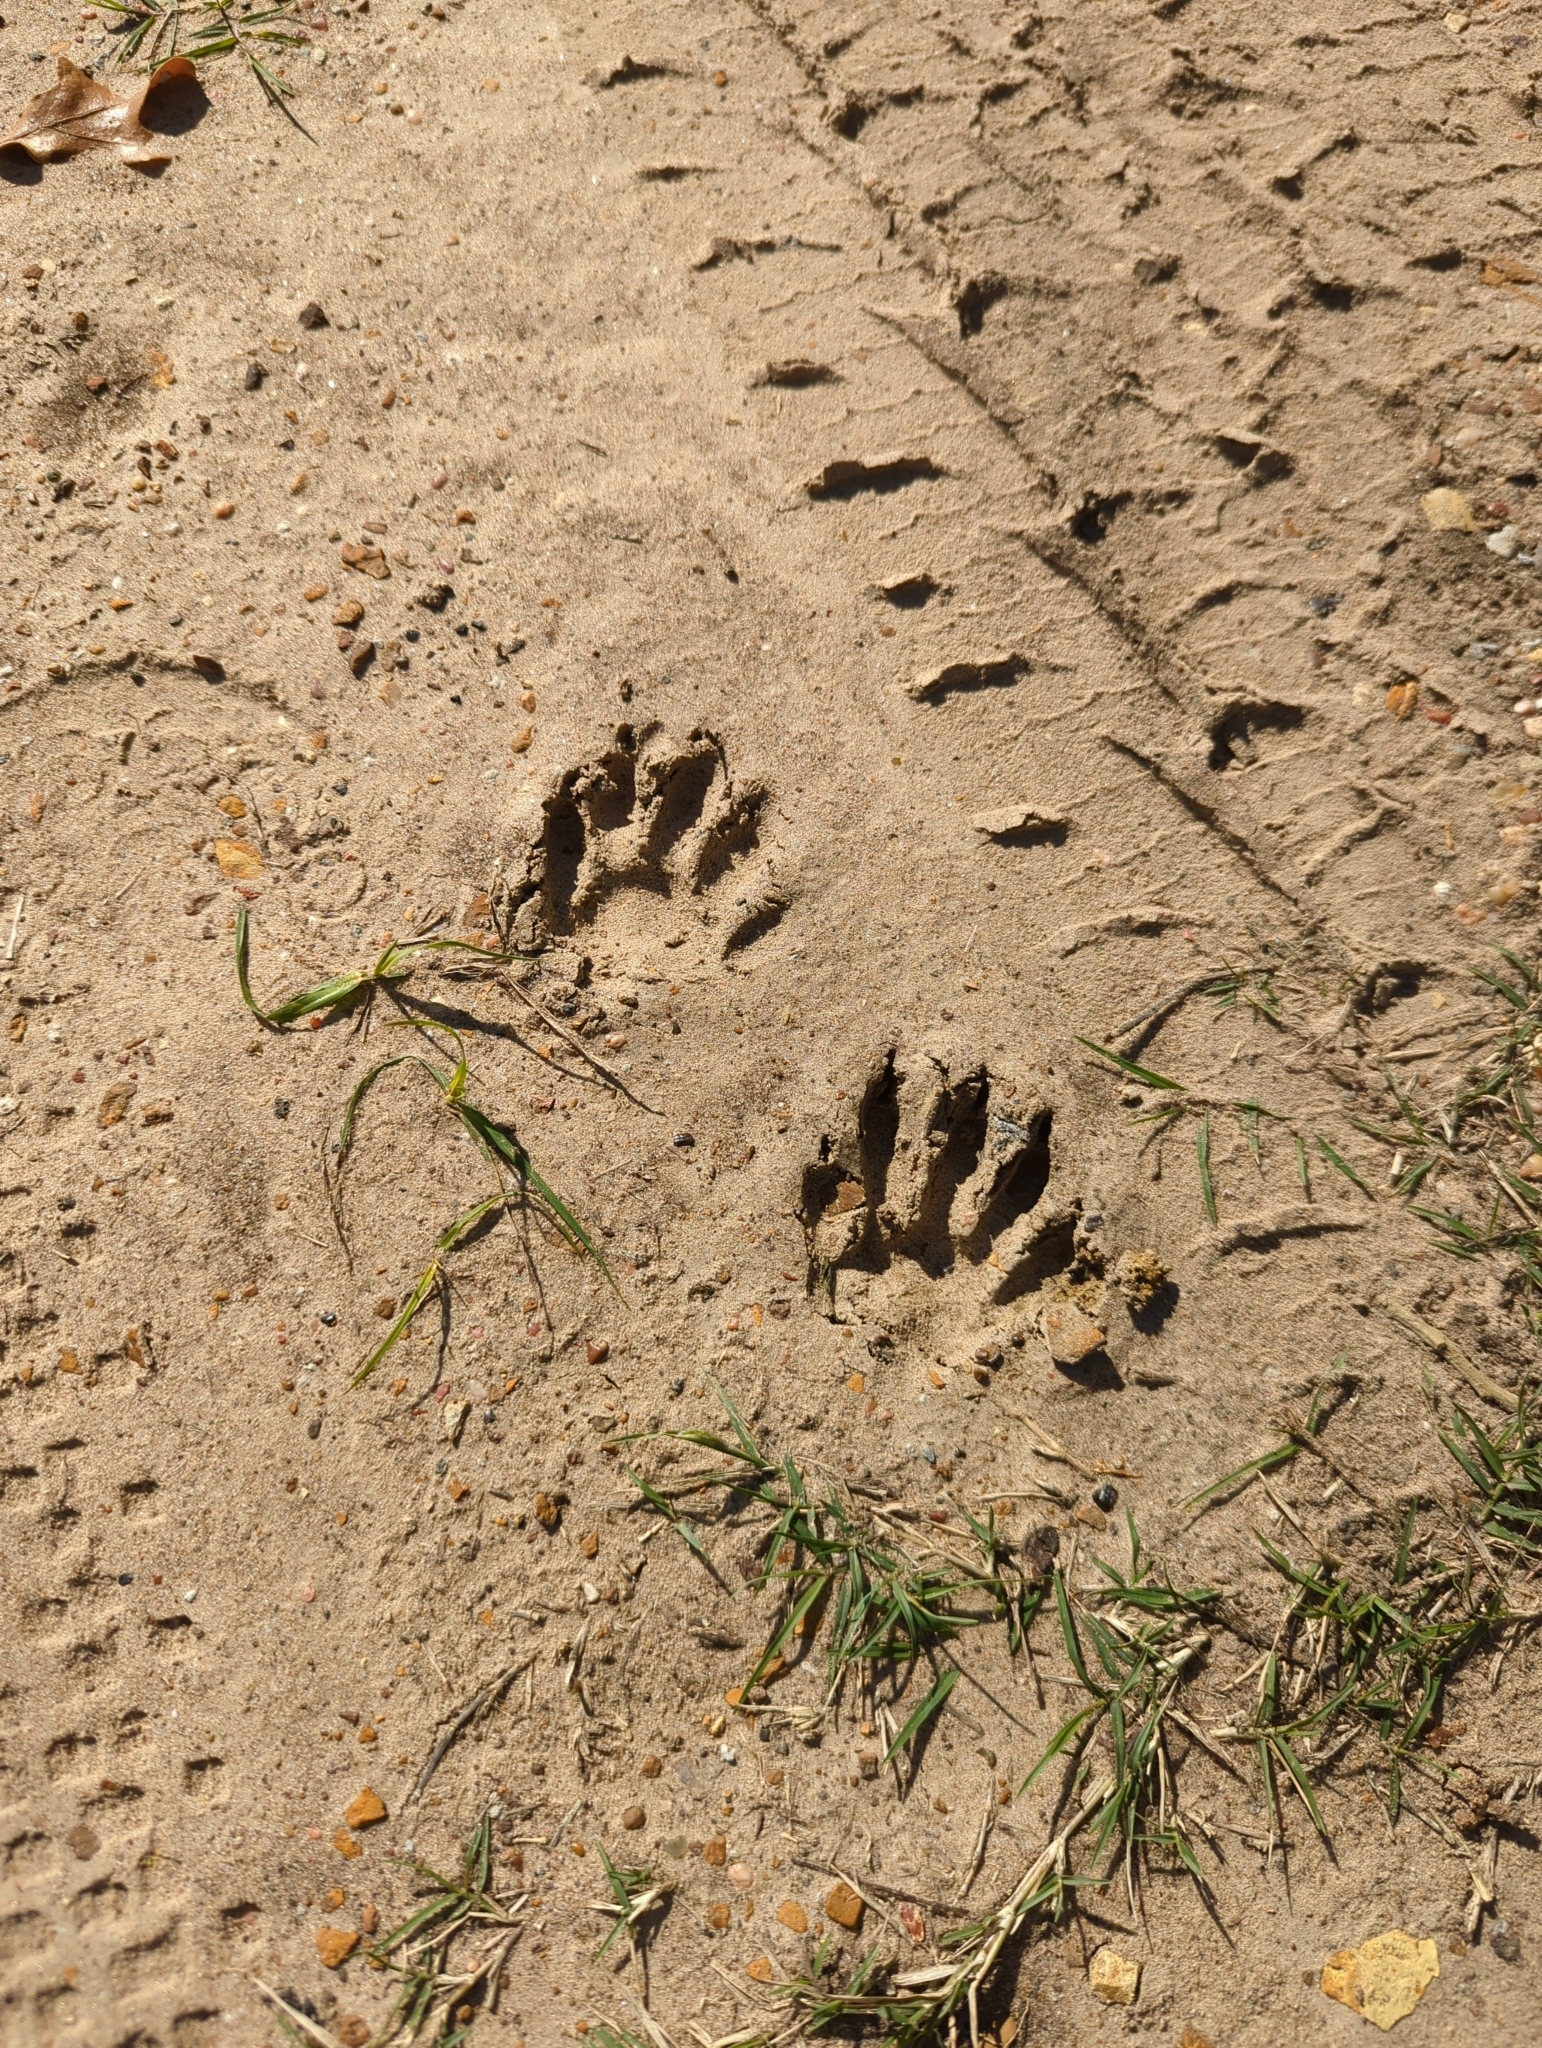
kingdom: Animalia
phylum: Chordata
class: Mammalia
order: Carnivora
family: Procyonidae
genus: Procyon
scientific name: Procyon lotor
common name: Raccoon
